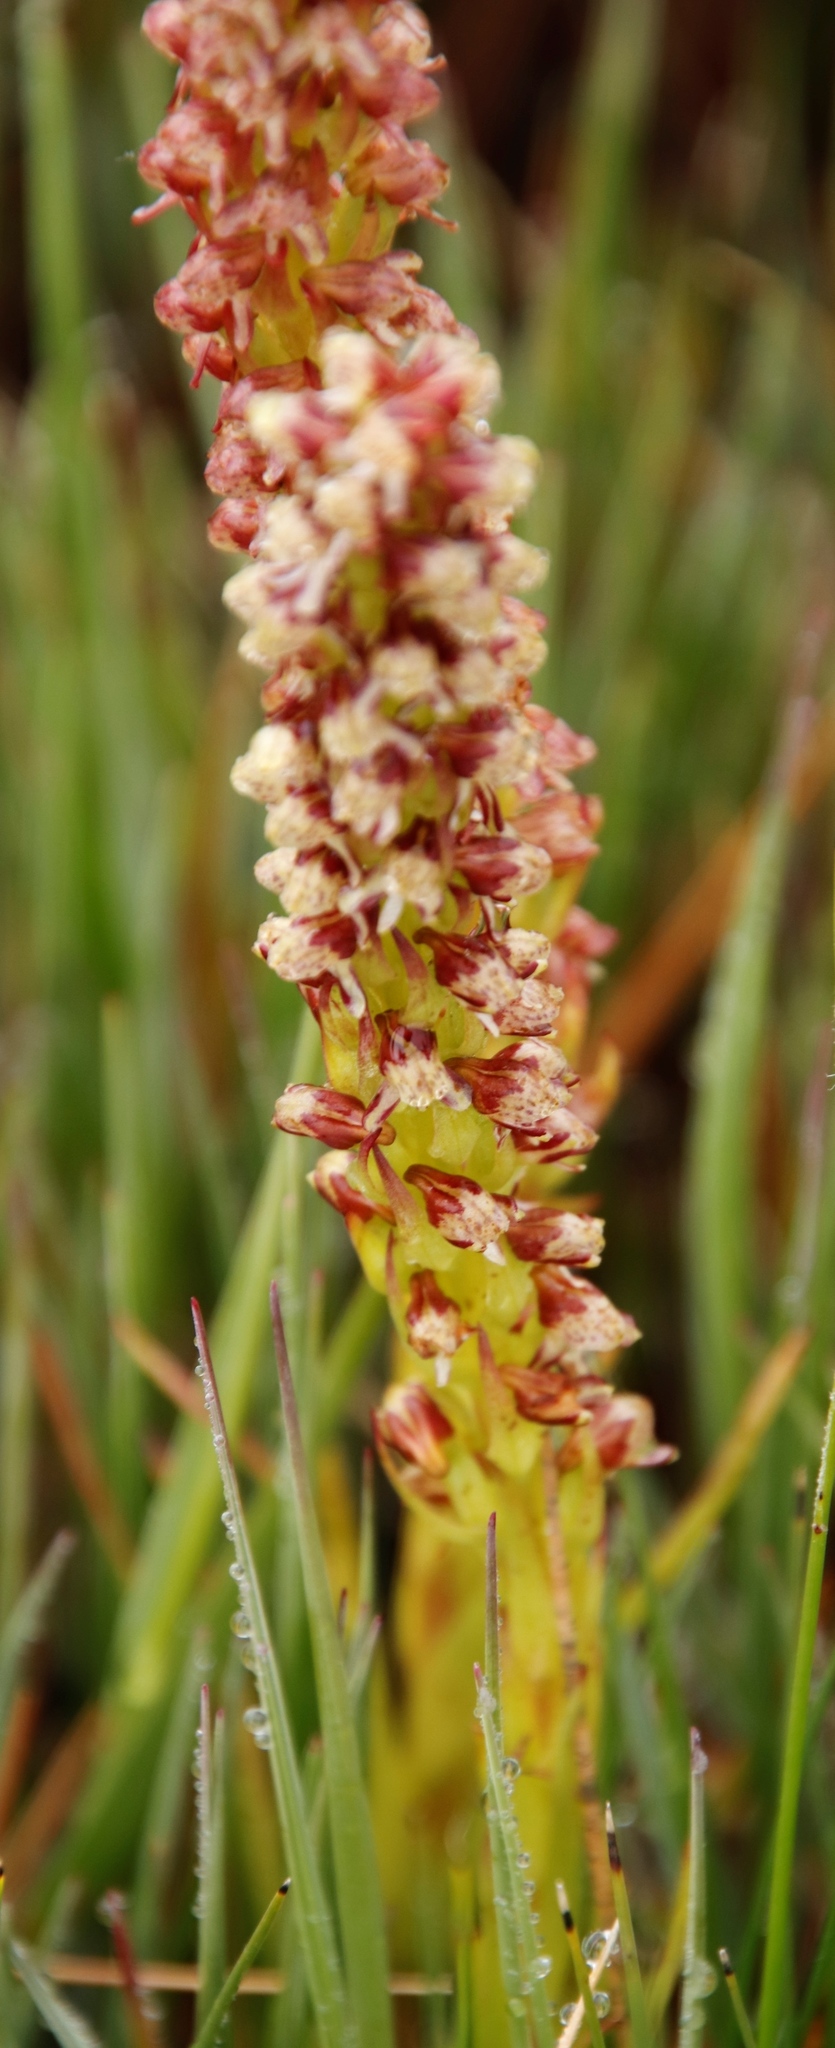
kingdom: Plantae
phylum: Tracheophyta
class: Liliopsida
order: Asparagales
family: Orchidaceae
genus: Disa
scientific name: Disa obtusa
